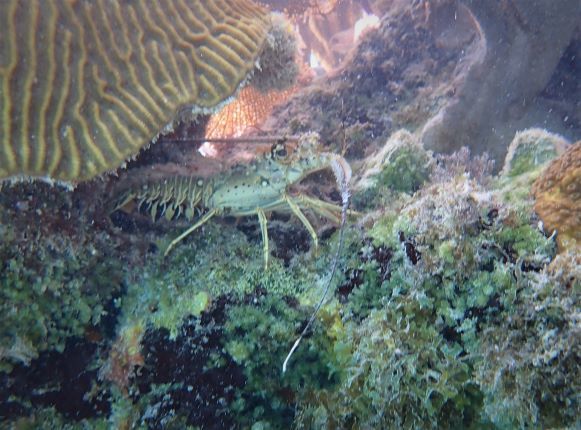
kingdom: Animalia
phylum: Arthropoda
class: Malacostraca
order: Decapoda
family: Palinuridae
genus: Panulirus
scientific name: Panulirus argus
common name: Caribbean spiny lobster
